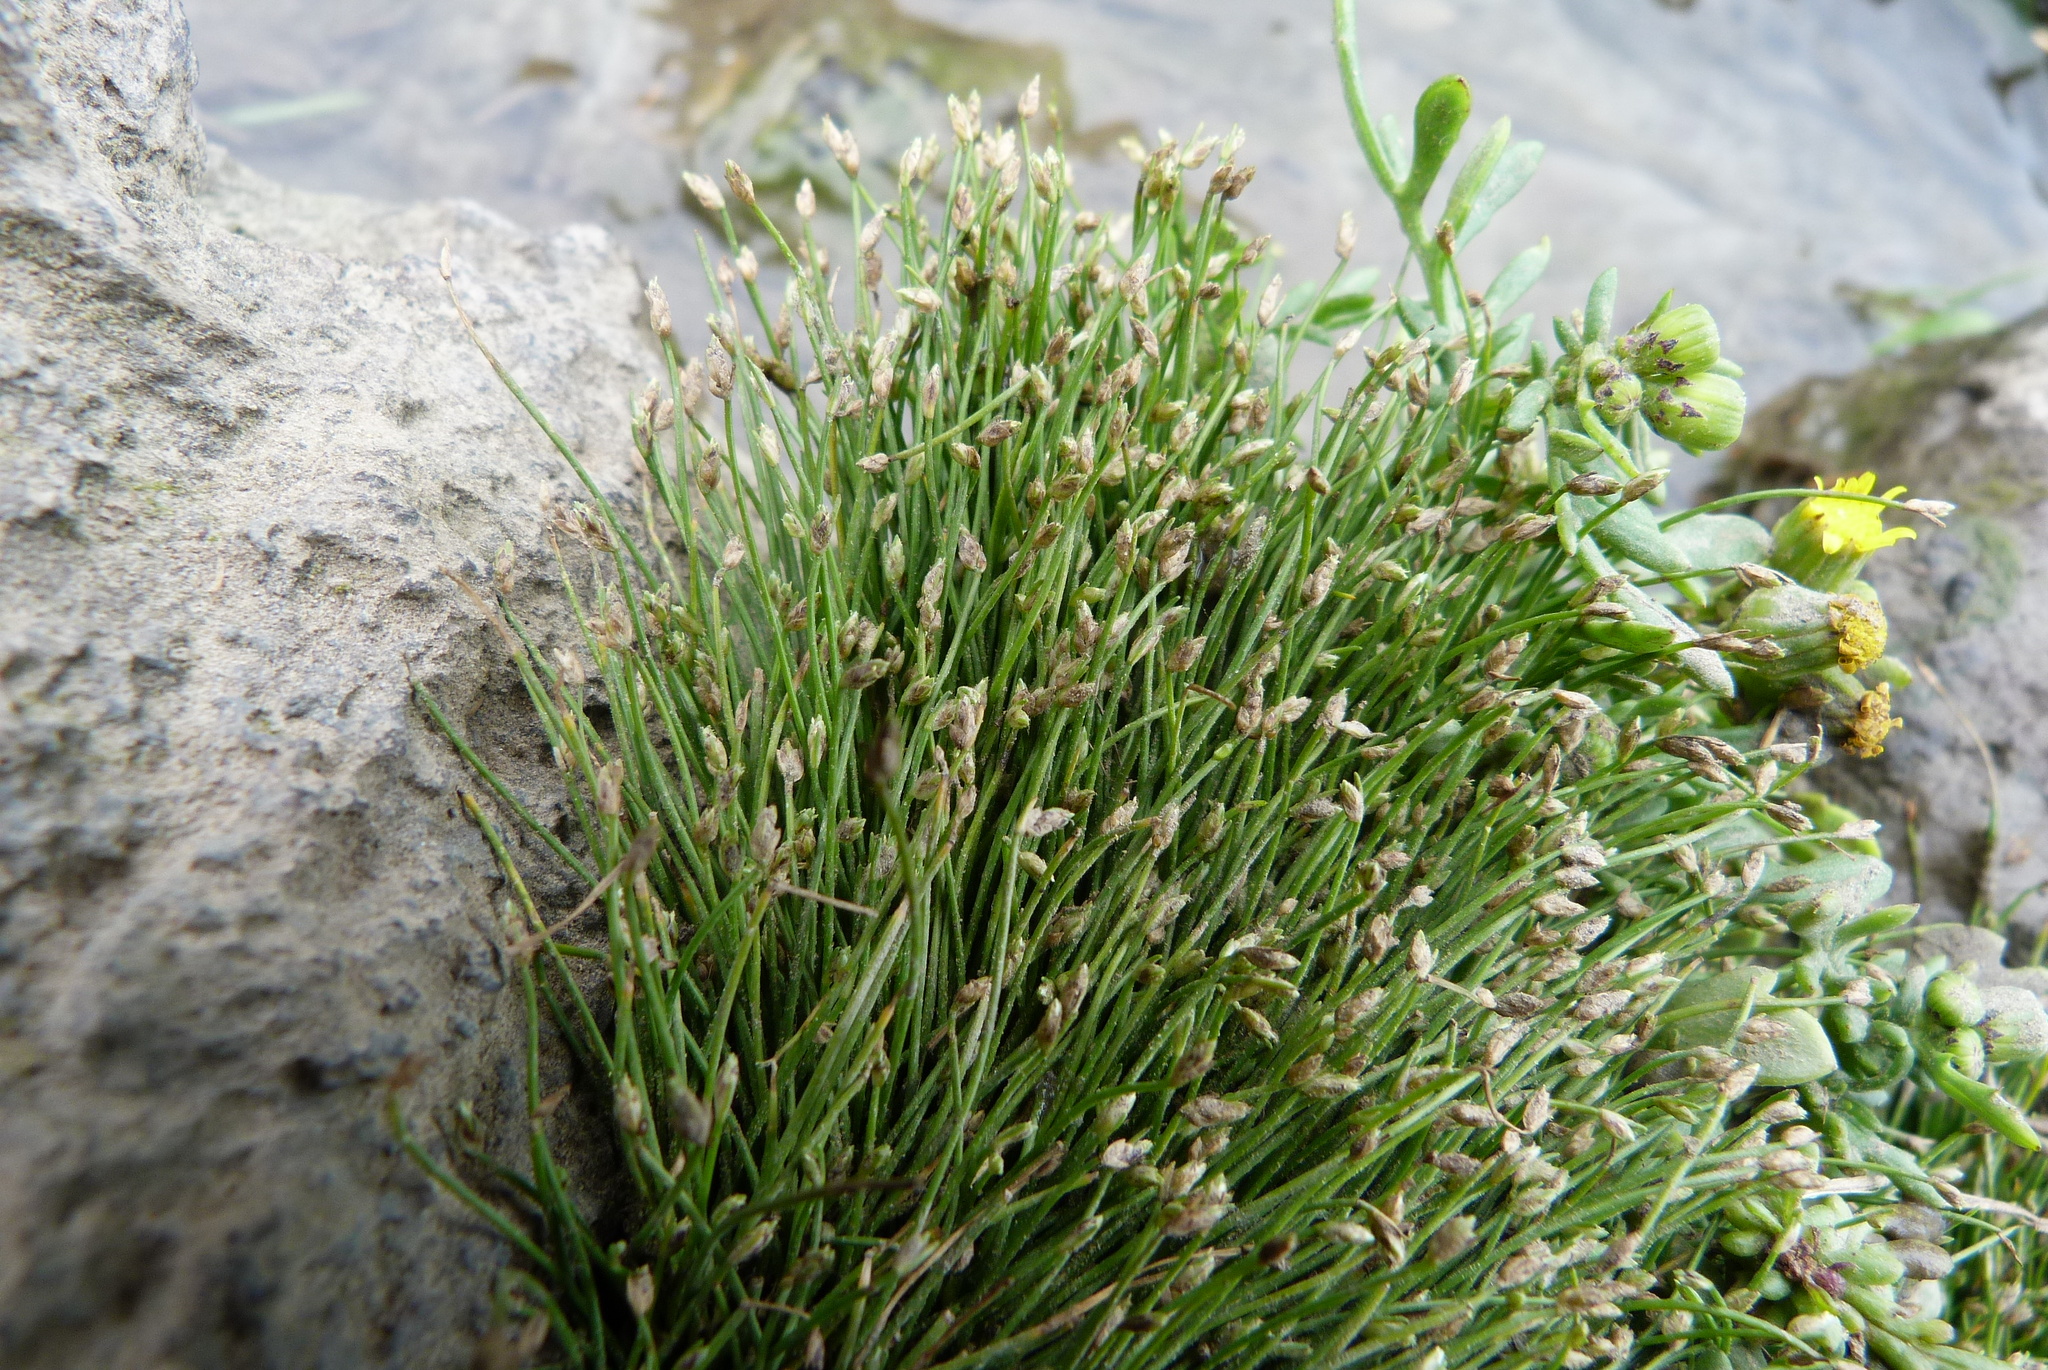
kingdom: Plantae
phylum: Tracheophyta
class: Liliopsida
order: Poales
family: Cyperaceae
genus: Isolepis
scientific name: Isolepis cernua
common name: Slender club-rush
